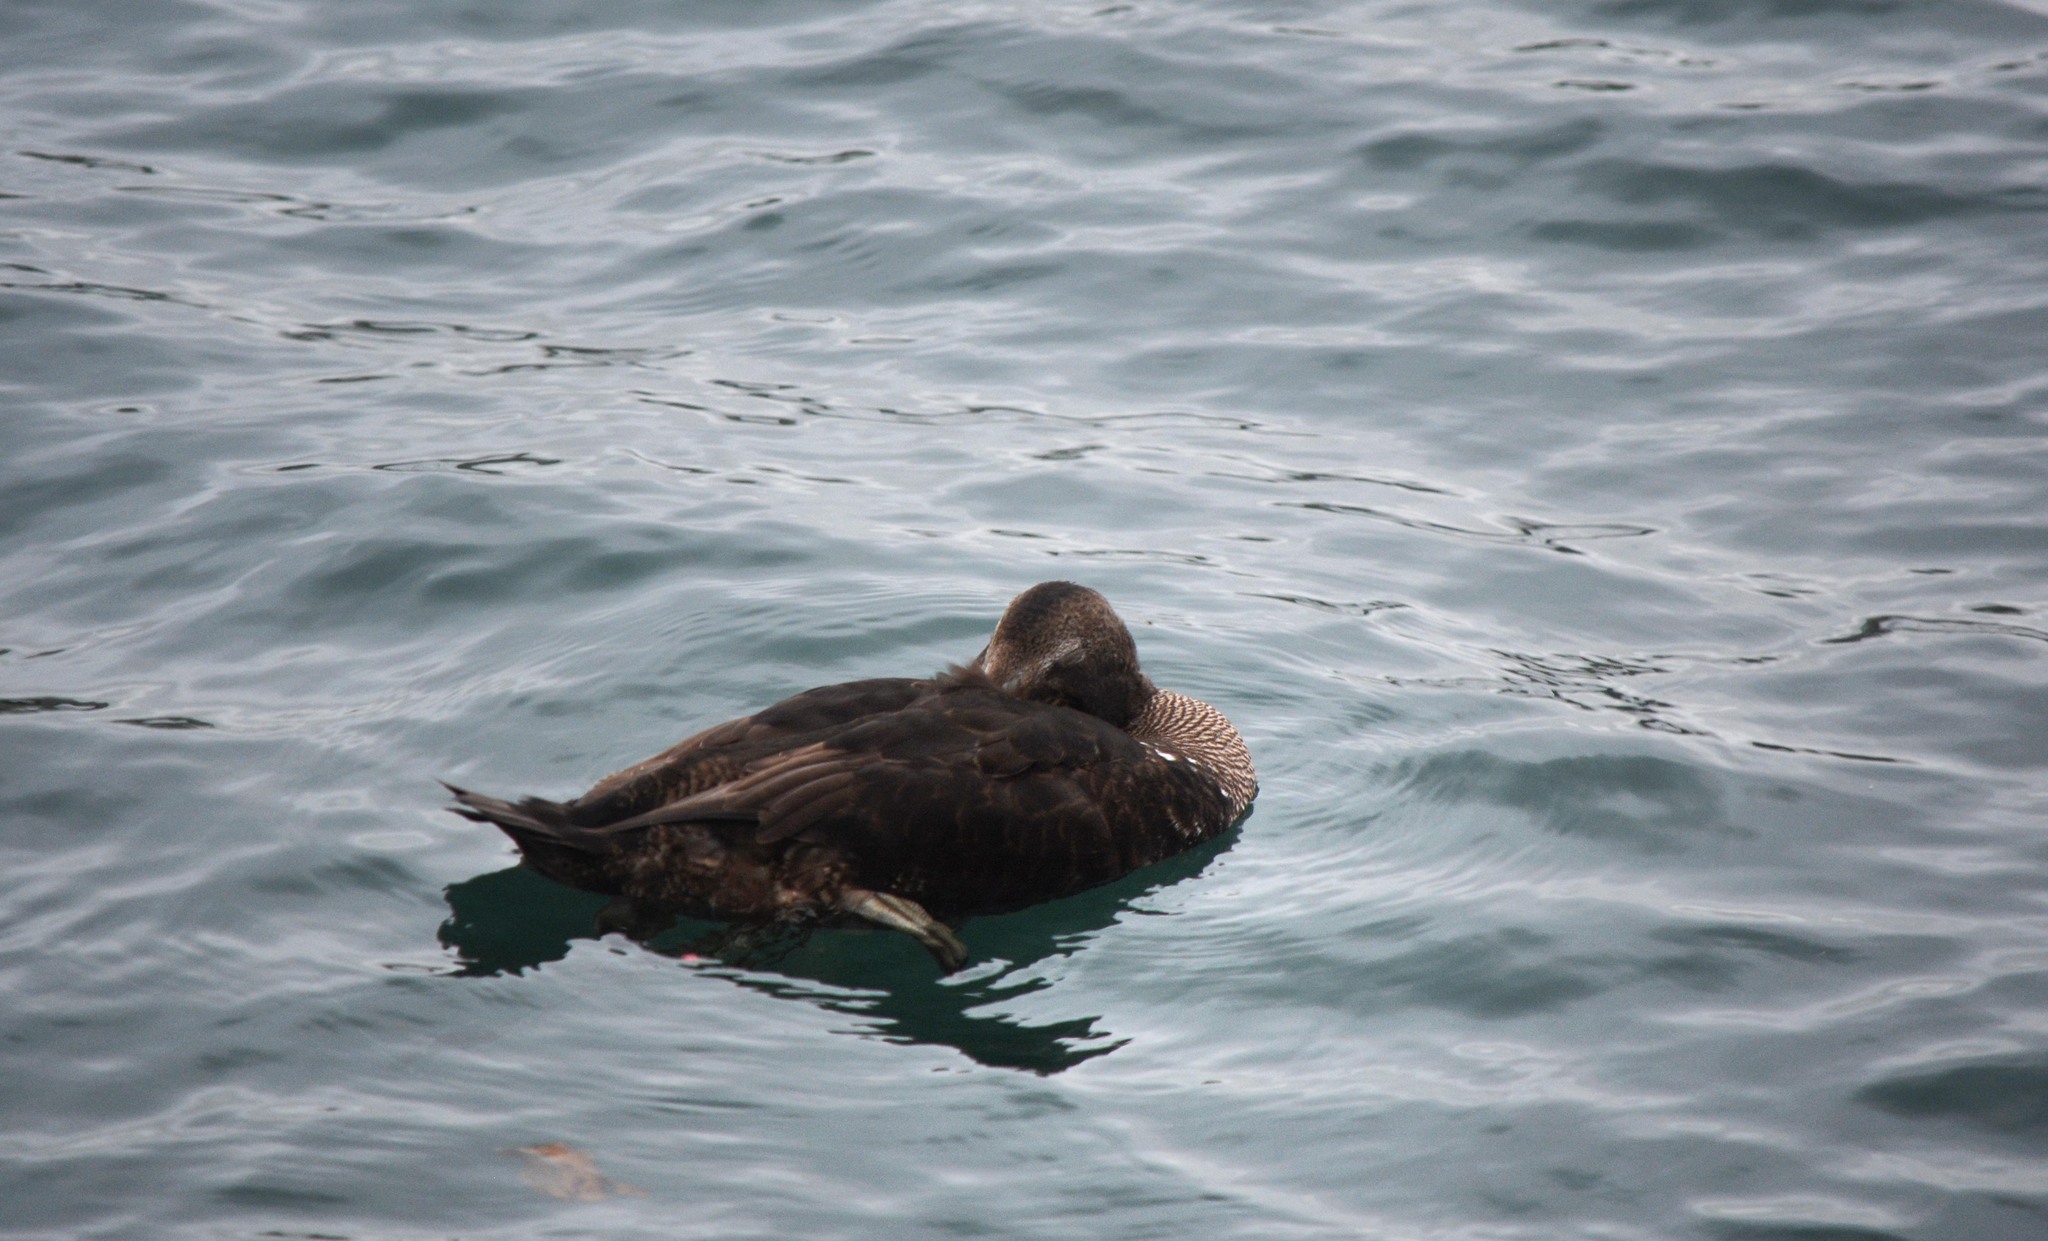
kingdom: Animalia
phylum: Chordata
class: Aves
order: Anseriformes
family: Anatidae
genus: Somateria
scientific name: Somateria mollissima
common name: Common eider
